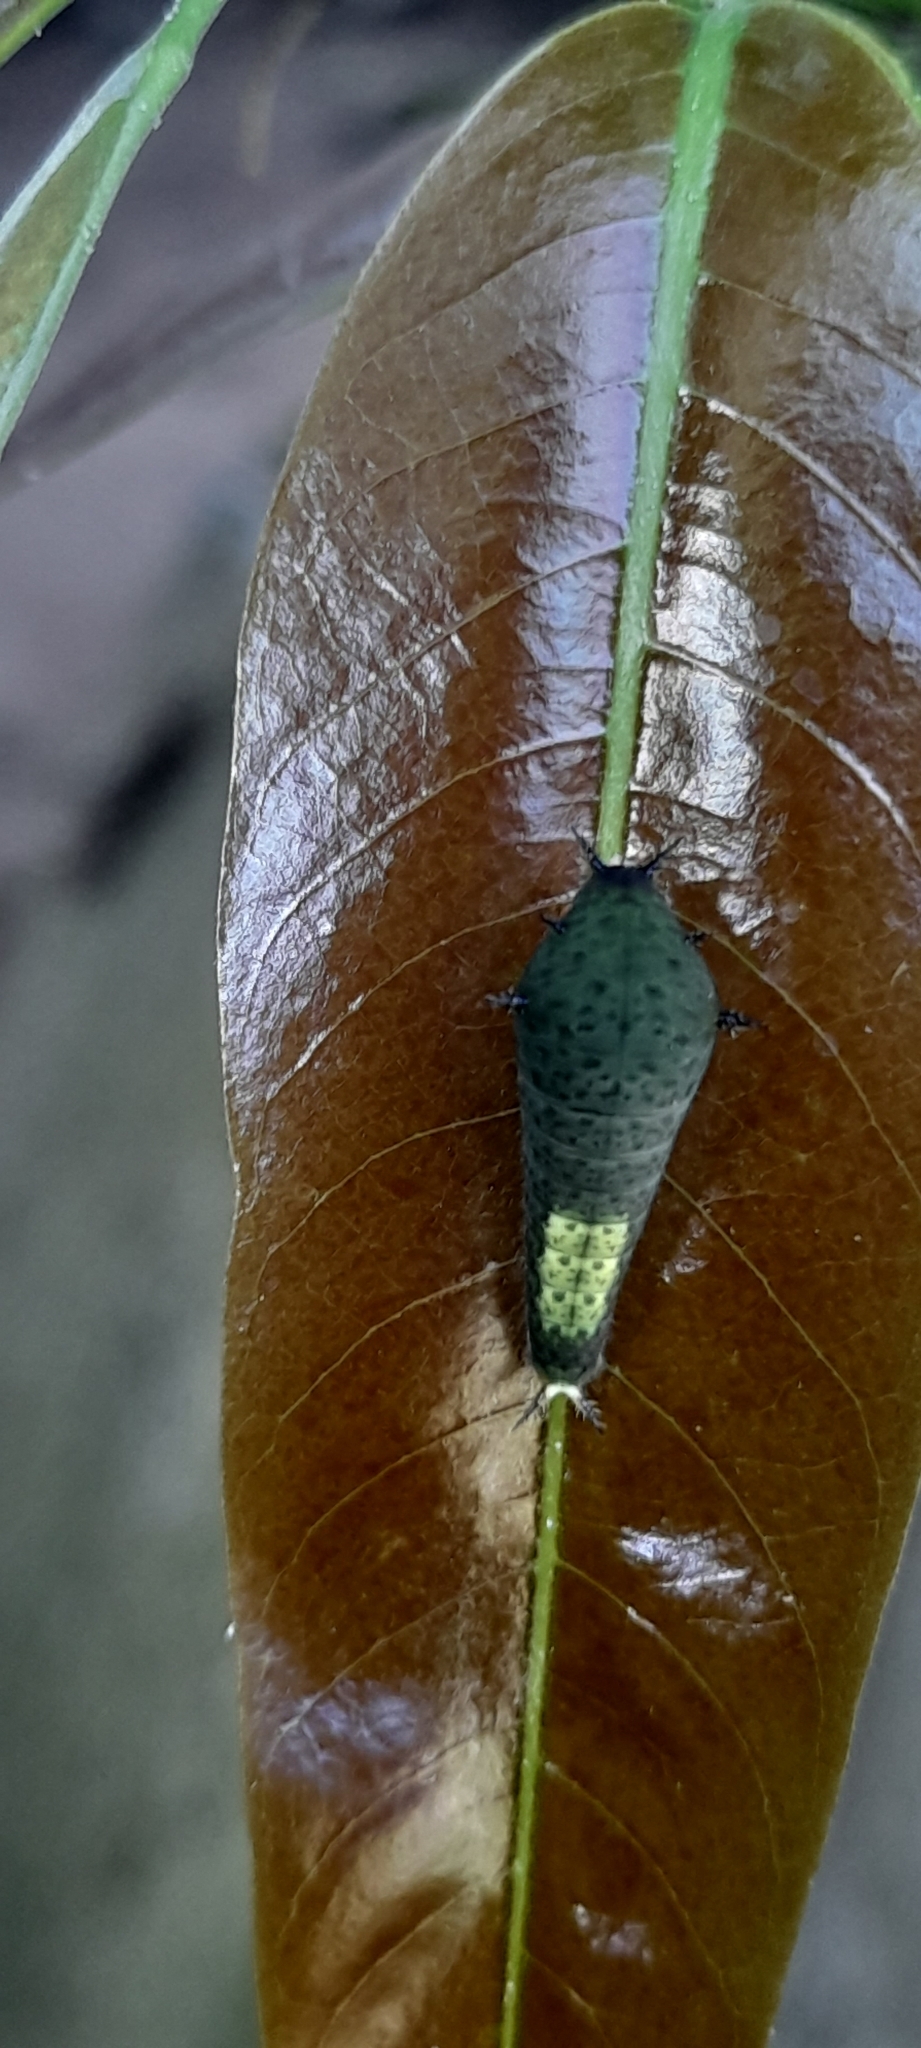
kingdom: Animalia
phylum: Arthropoda
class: Insecta
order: Lepidoptera
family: Papilionidae
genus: Graphium
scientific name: Graphium agamemnon
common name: Tailed jay
